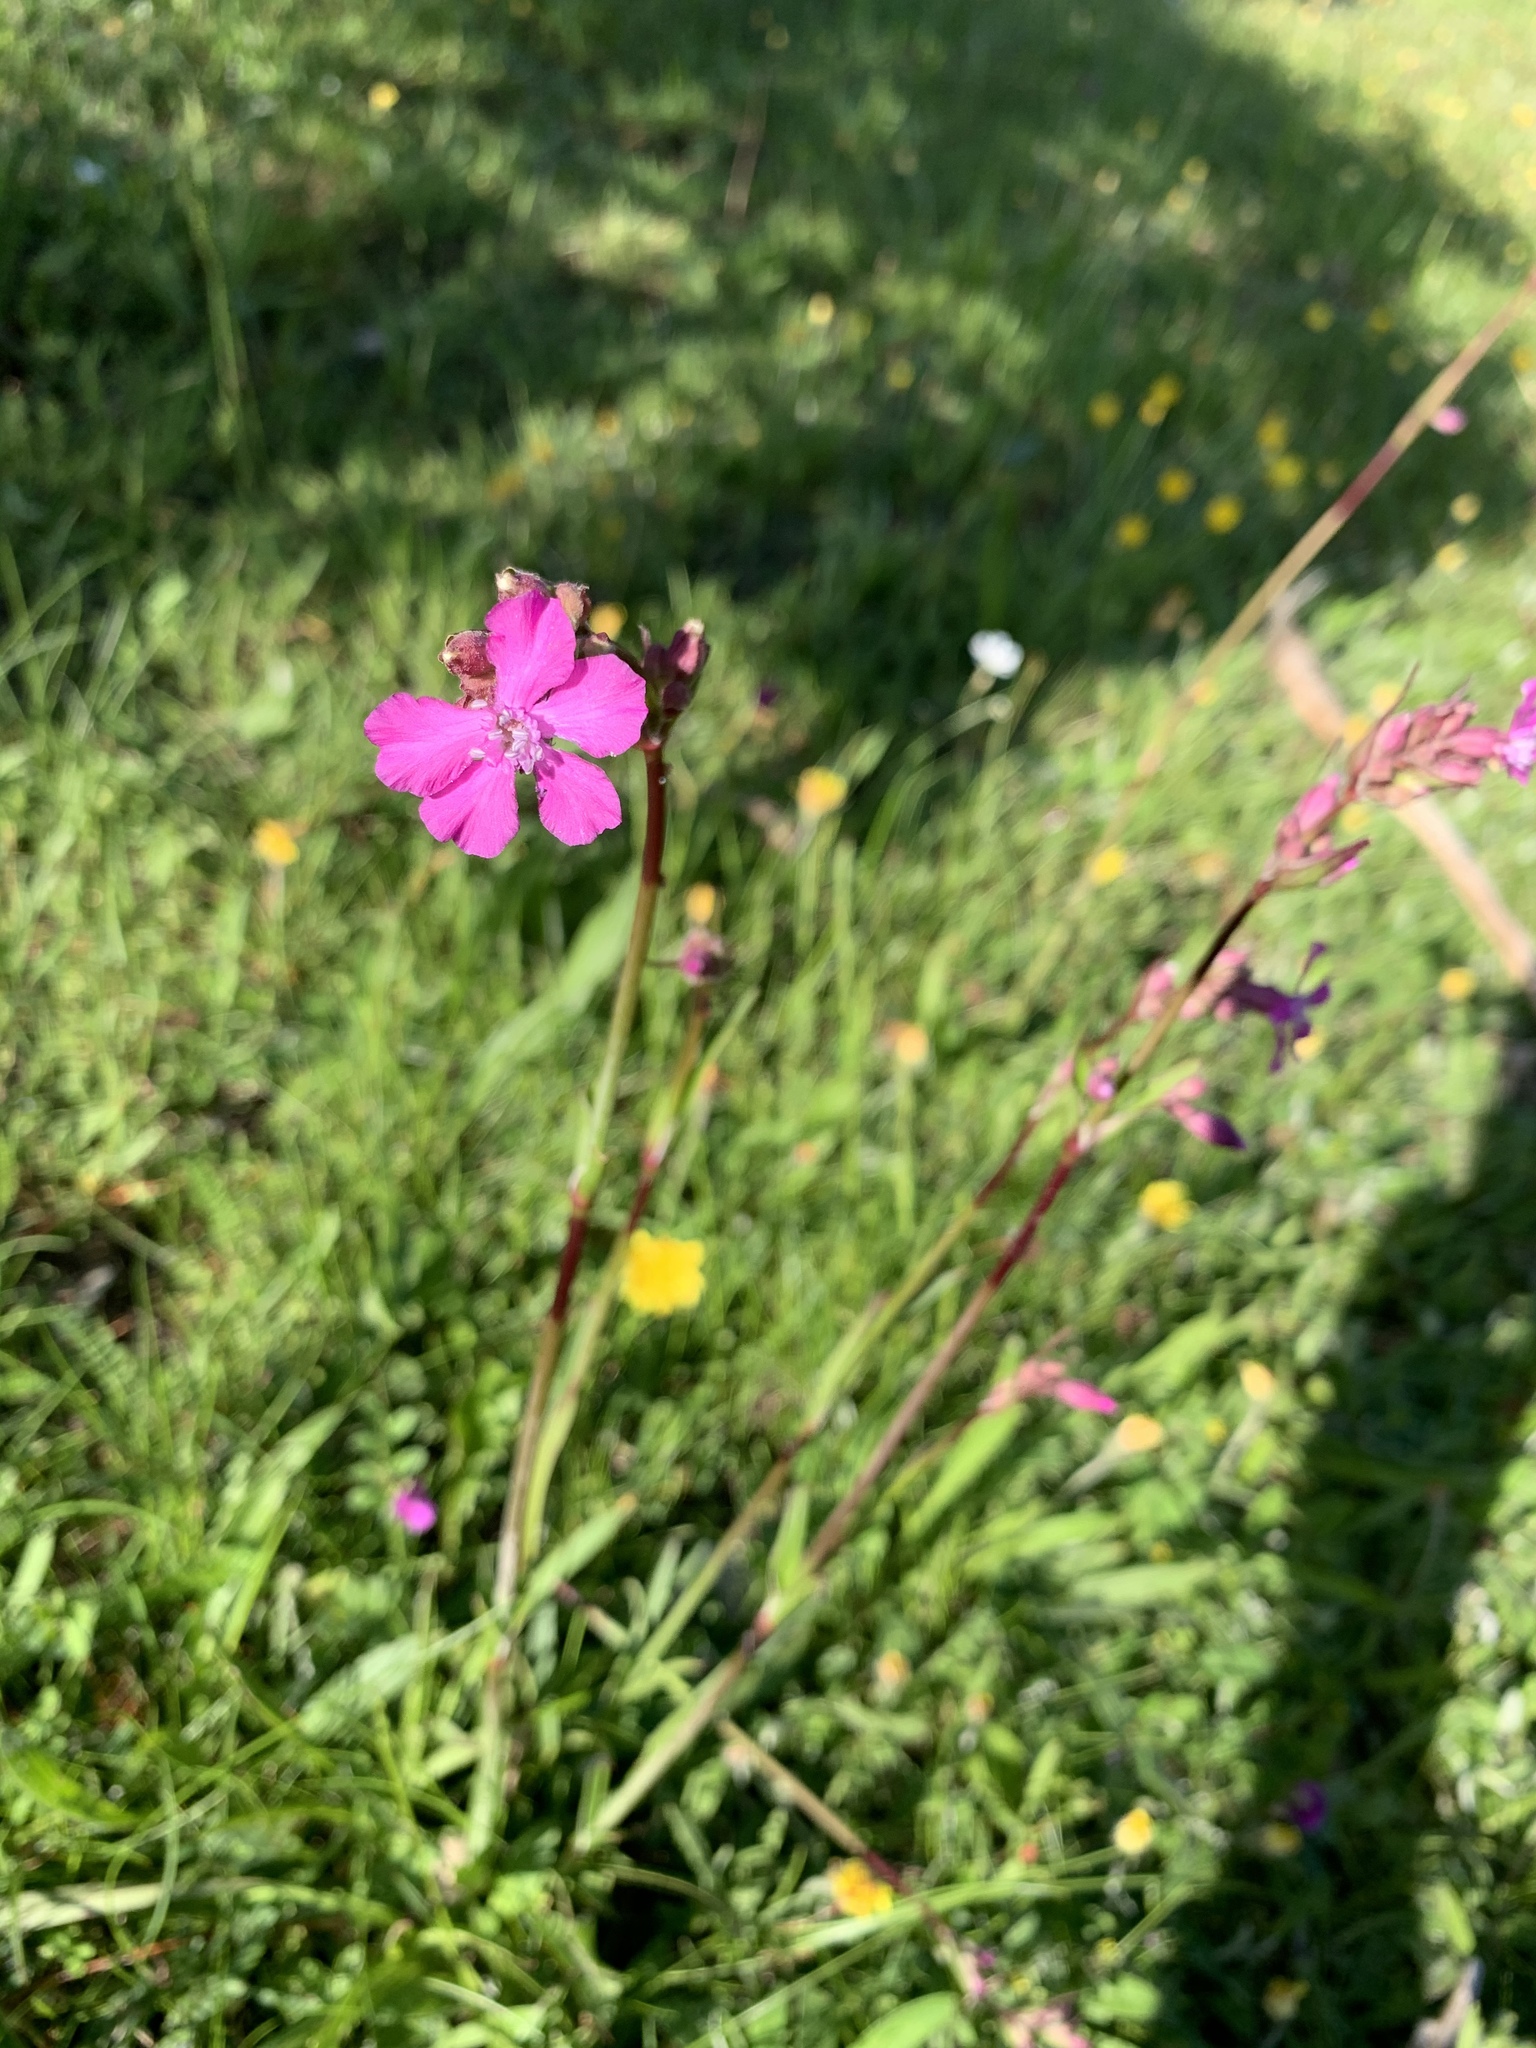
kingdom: Plantae
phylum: Tracheophyta
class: Magnoliopsida
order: Caryophyllales
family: Caryophyllaceae
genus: Viscaria
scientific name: Viscaria vulgaris
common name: Clammy campion
